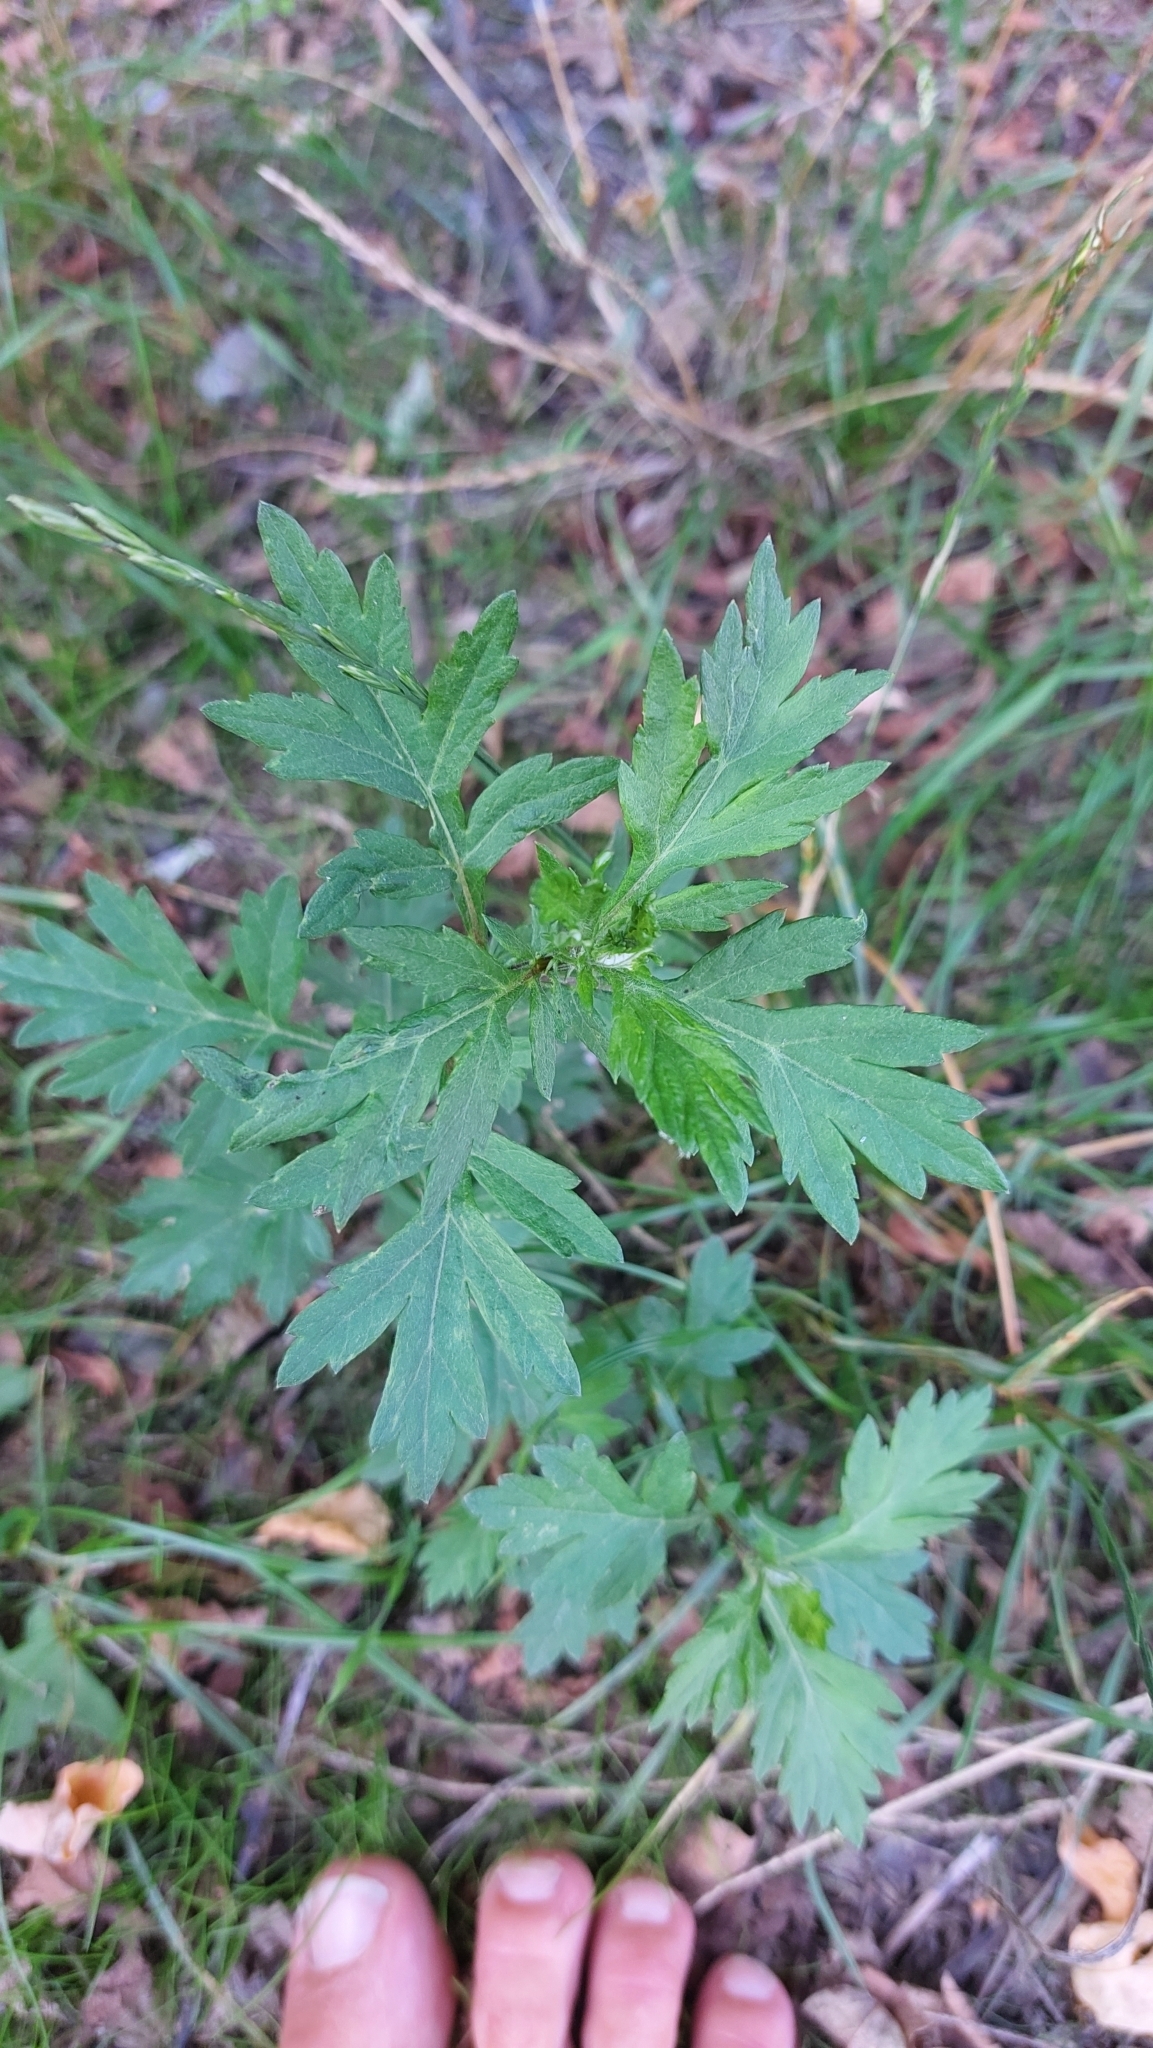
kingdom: Plantae
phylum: Tracheophyta
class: Magnoliopsida
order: Asterales
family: Asteraceae
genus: Artemisia
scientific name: Artemisia vulgaris
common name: Mugwort
